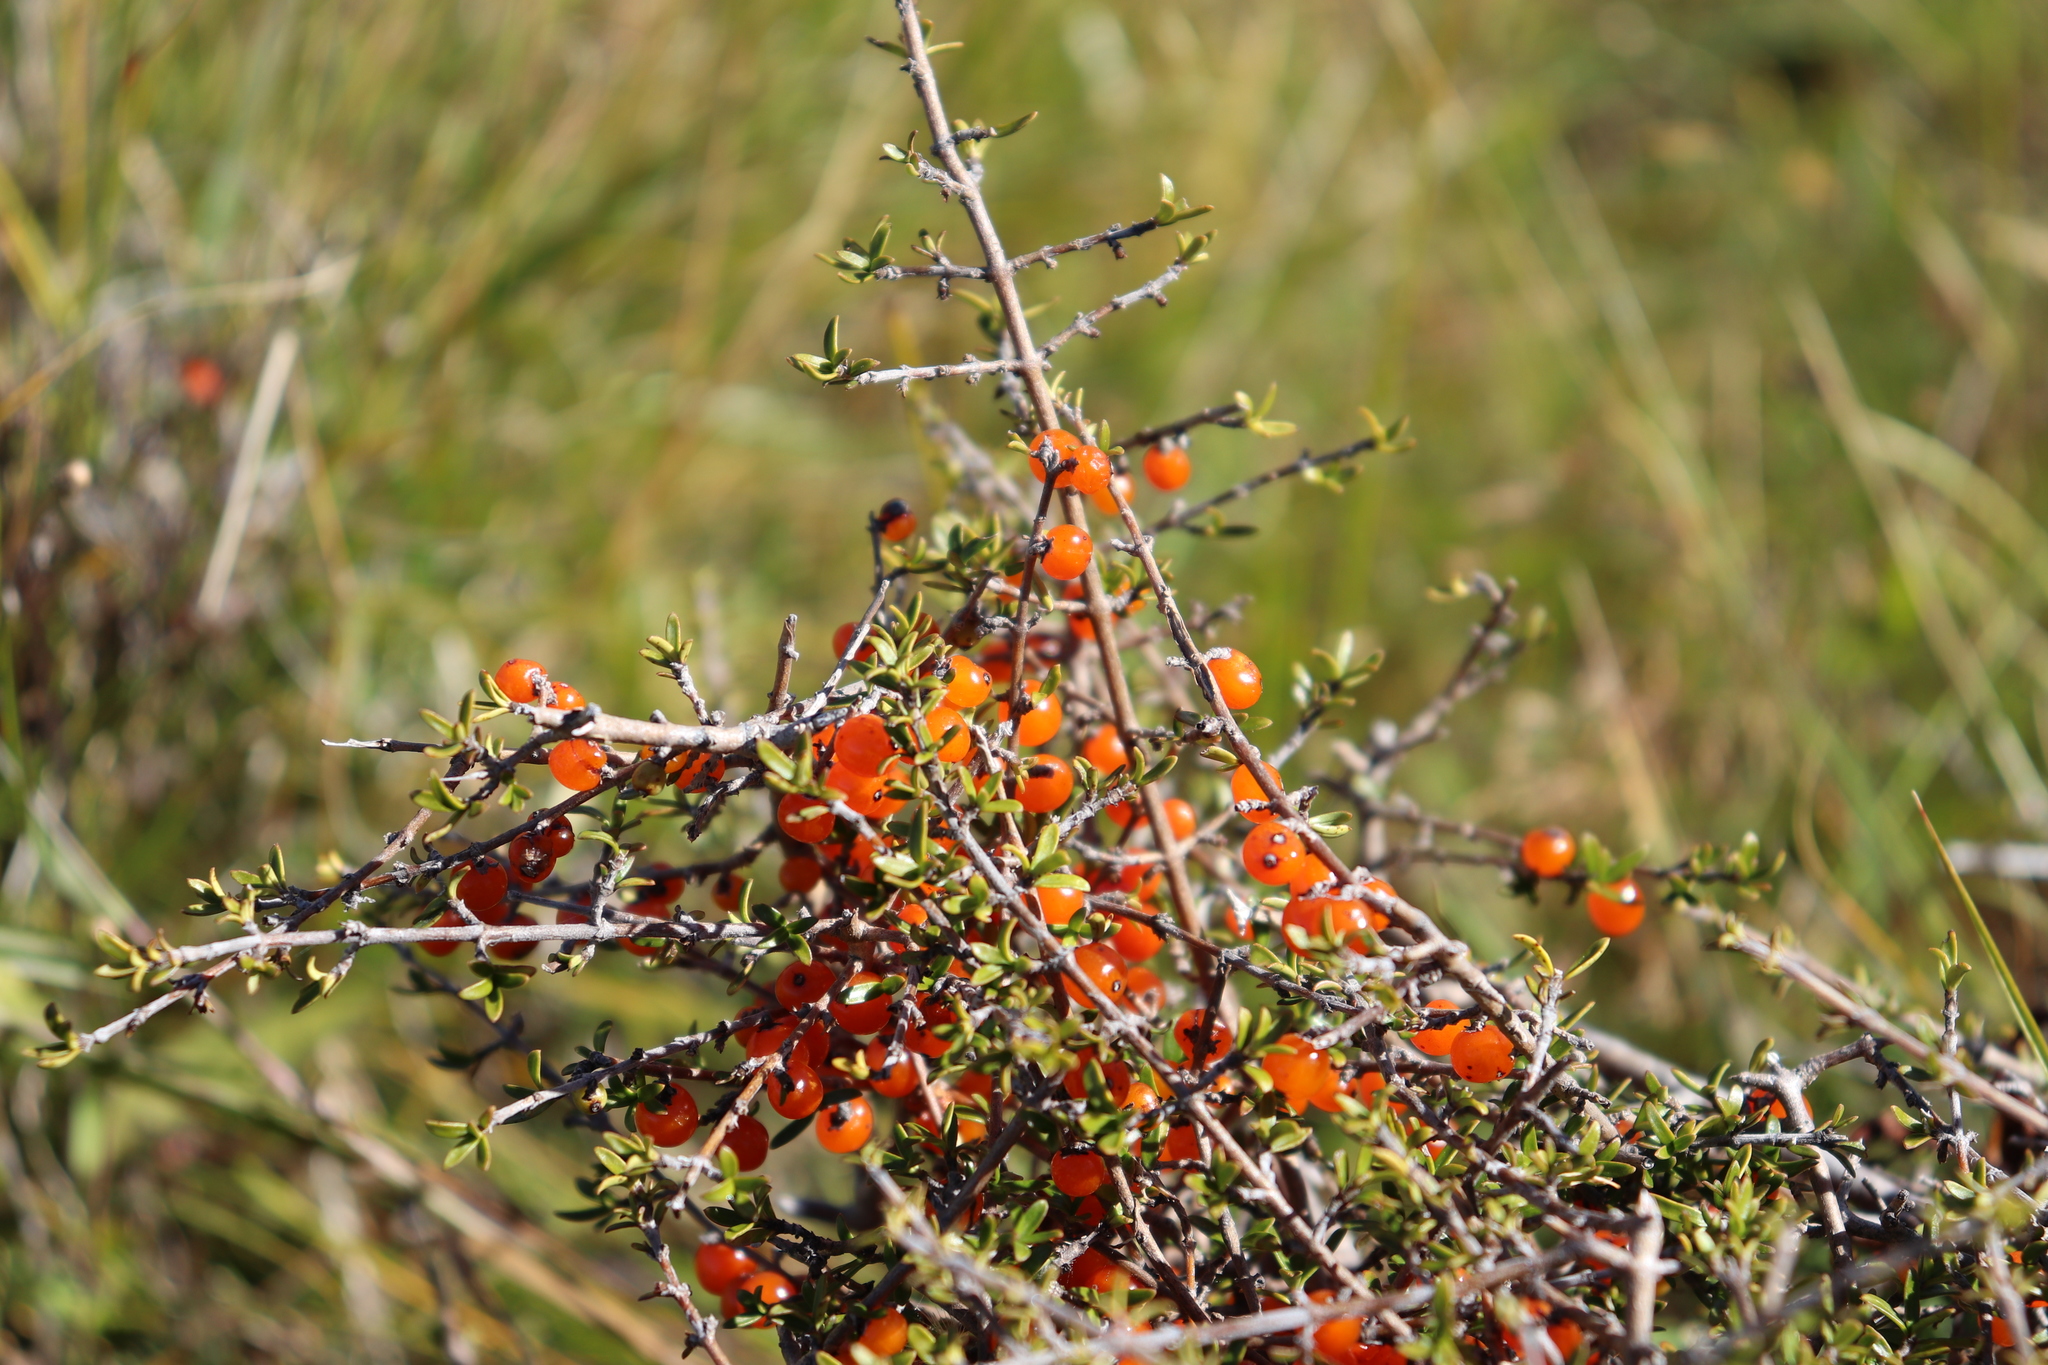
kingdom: Plantae
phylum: Tracheophyta
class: Magnoliopsida
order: Gentianales
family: Rubiaceae
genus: Coprosma
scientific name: Coprosma cheesemanii
